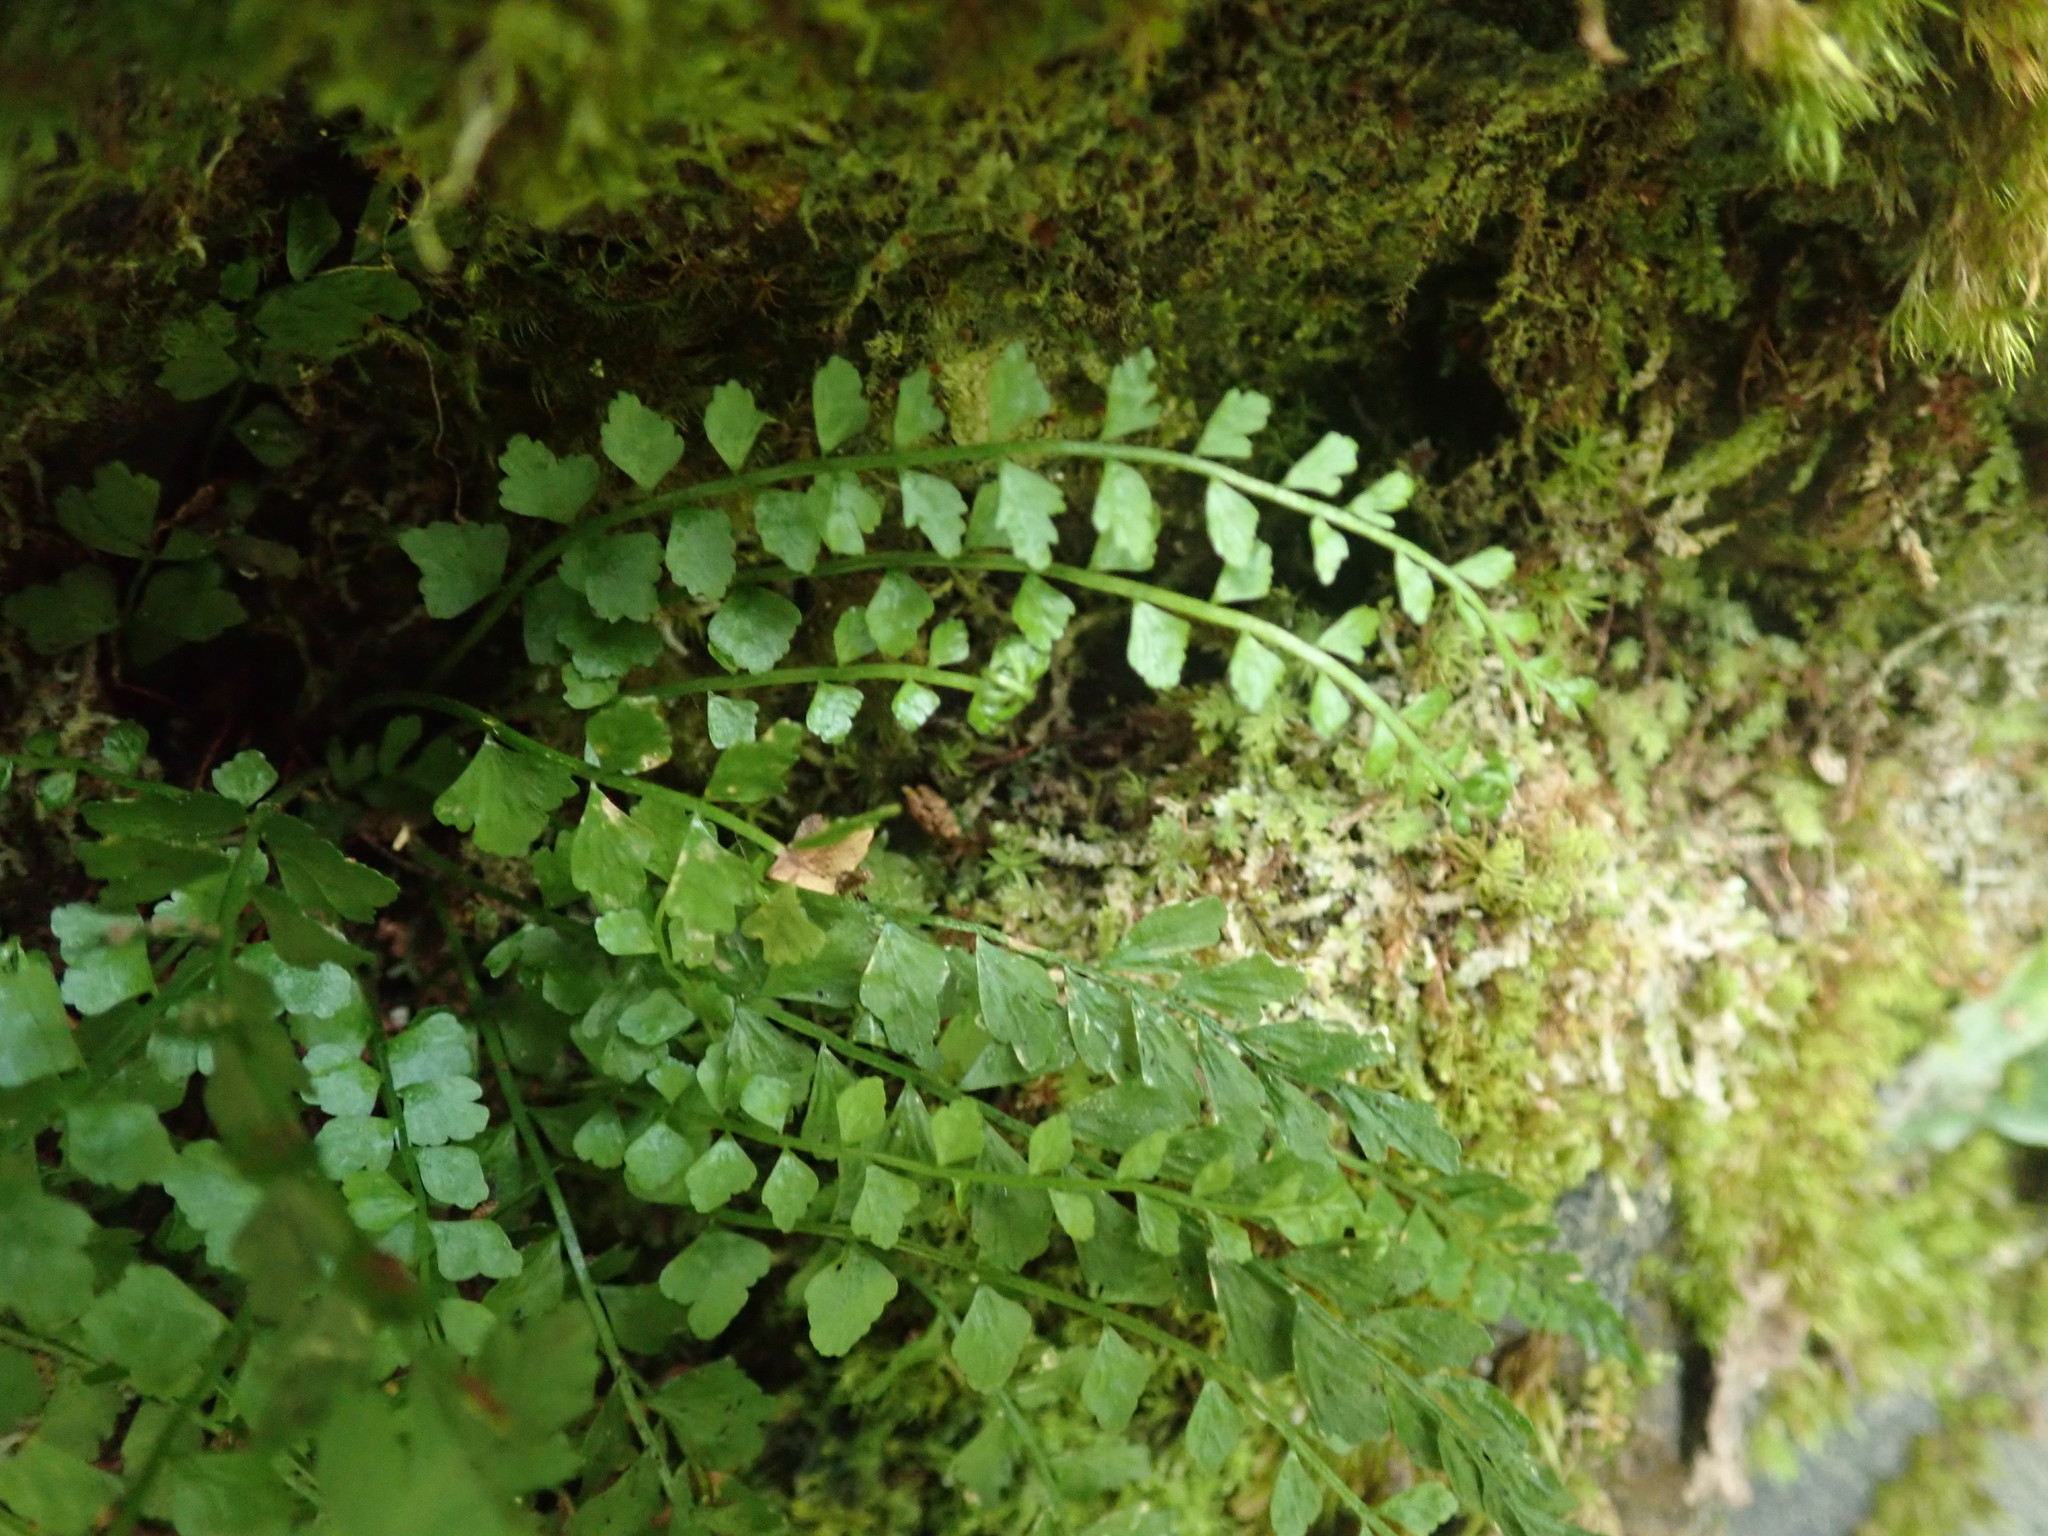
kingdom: Plantae
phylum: Tracheophyta
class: Polypodiopsida
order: Polypodiales
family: Aspleniaceae
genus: Asplenium
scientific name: Asplenium viride
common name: Green spleenwort
